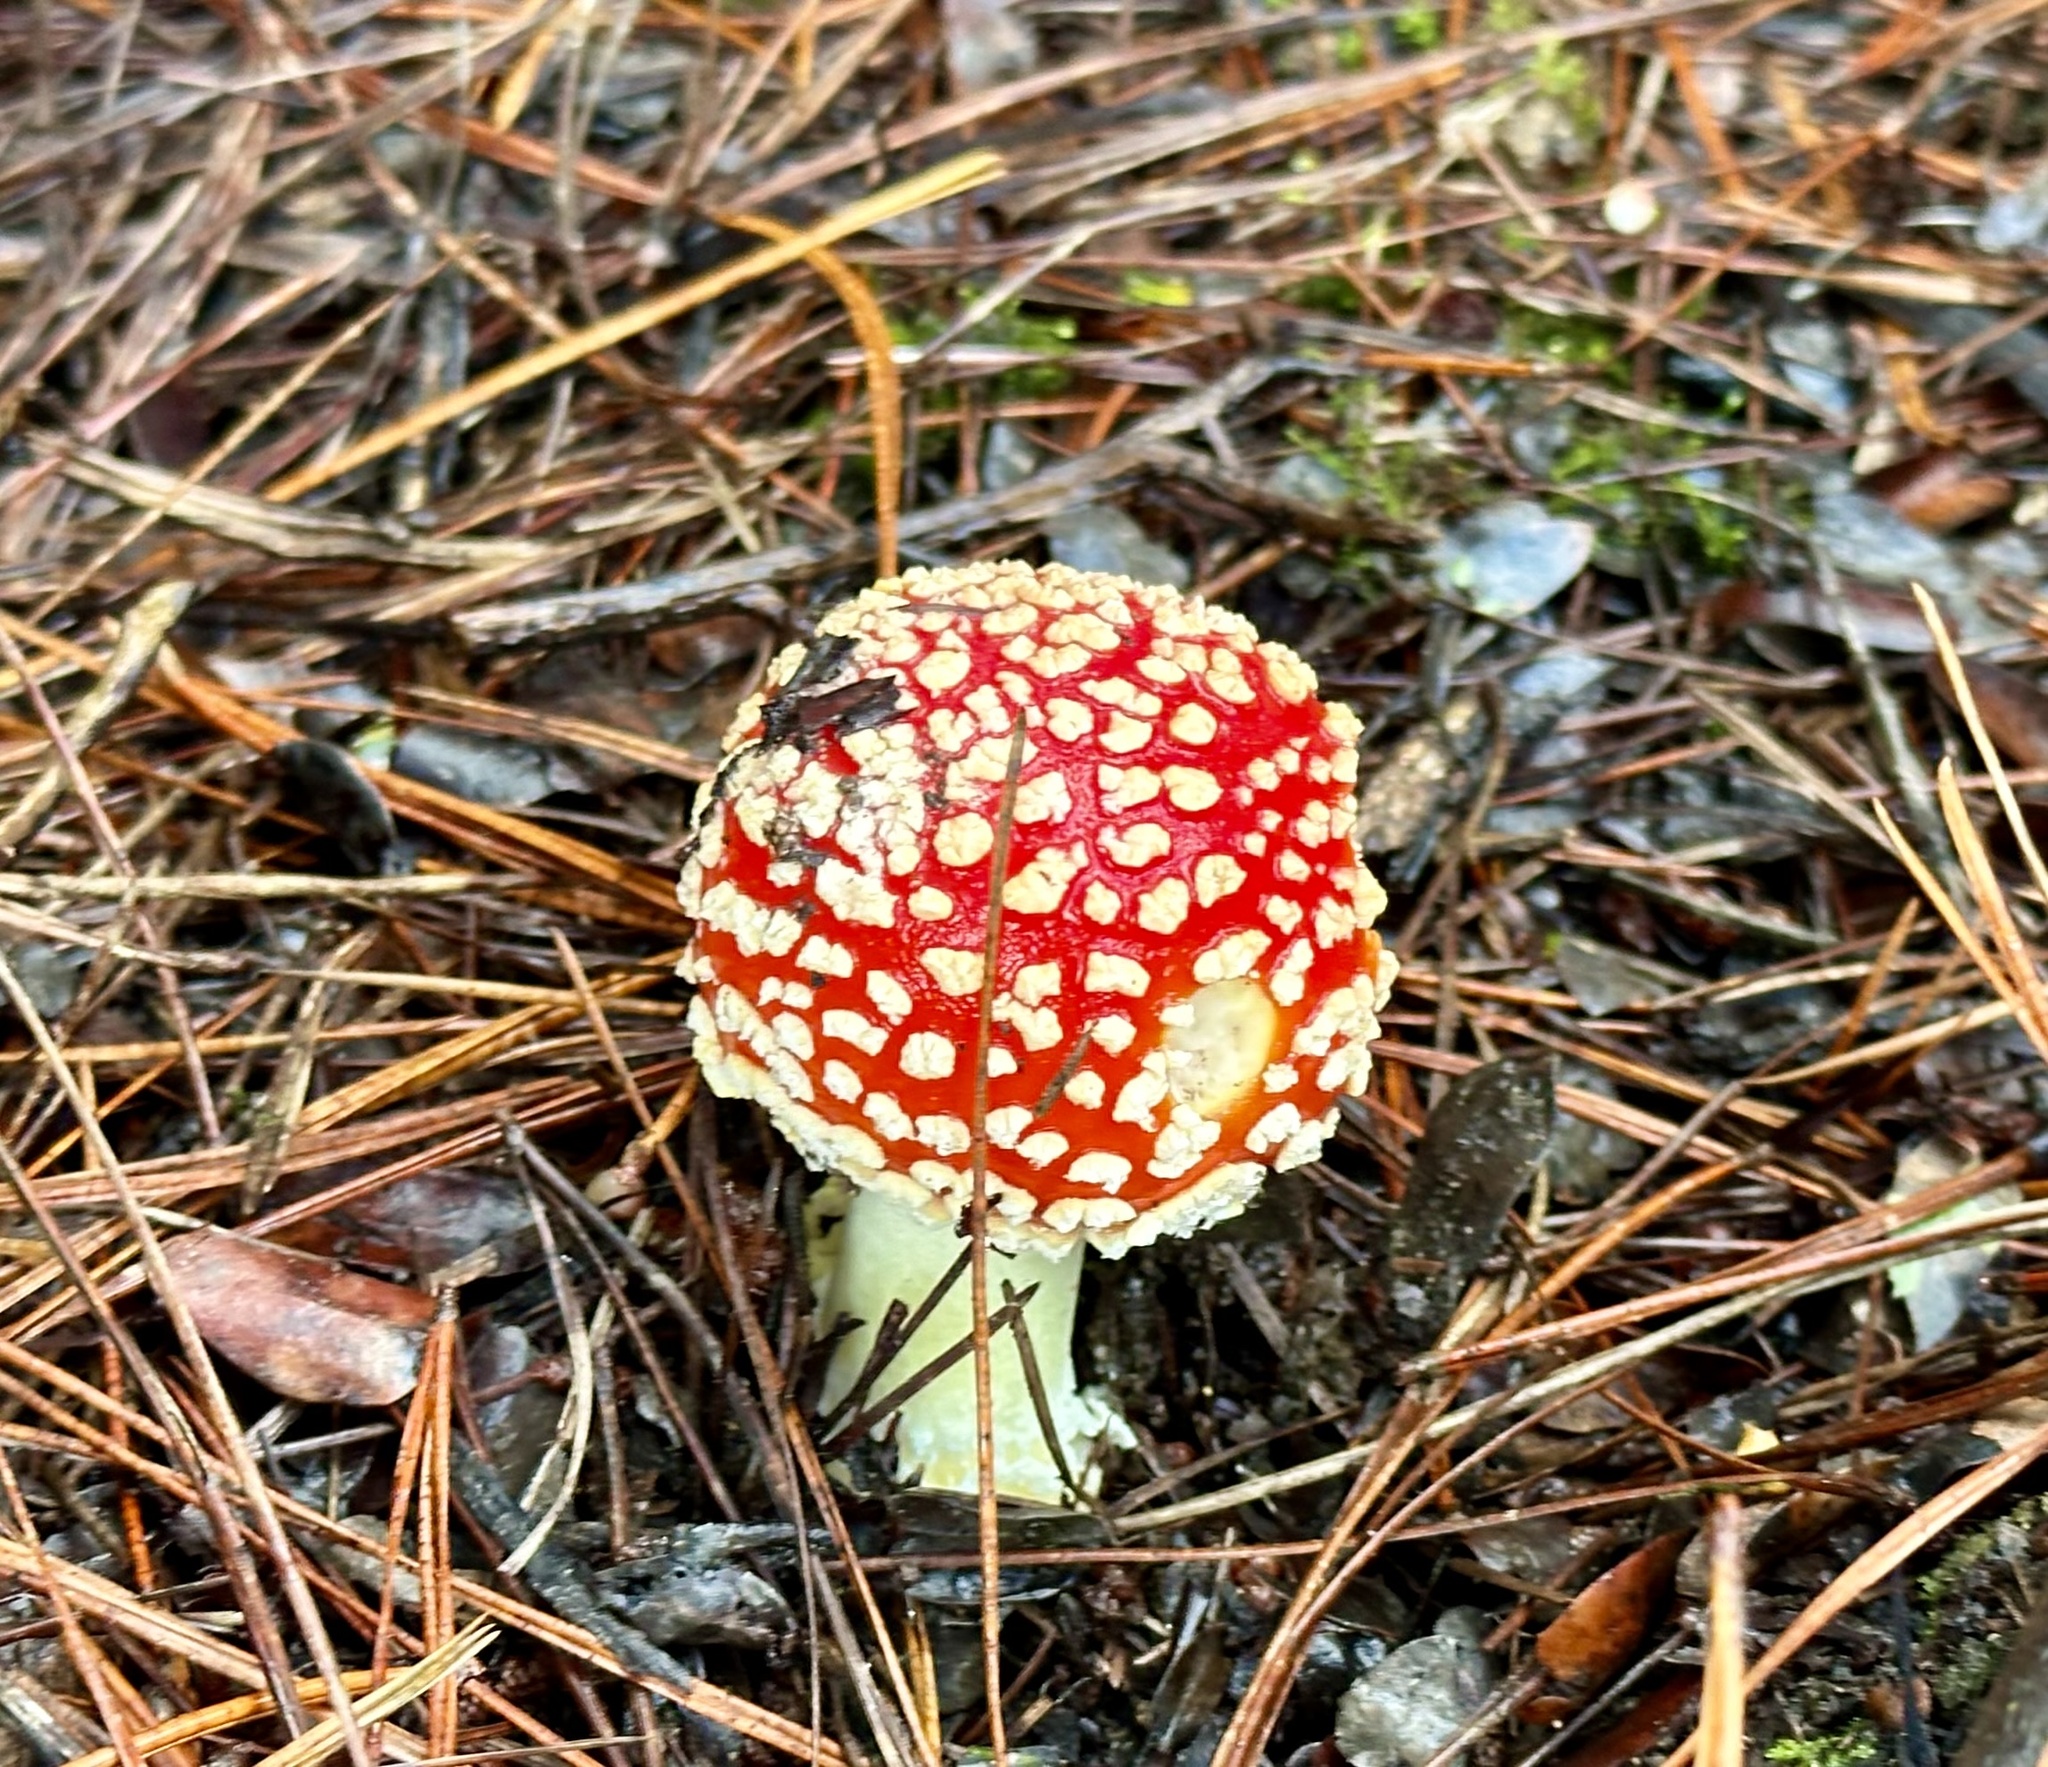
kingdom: Fungi
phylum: Basidiomycota
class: Agaricomycetes
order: Agaricales
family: Amanitaceae
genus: Amanita
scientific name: Amanita muscaria
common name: Fly agaric
